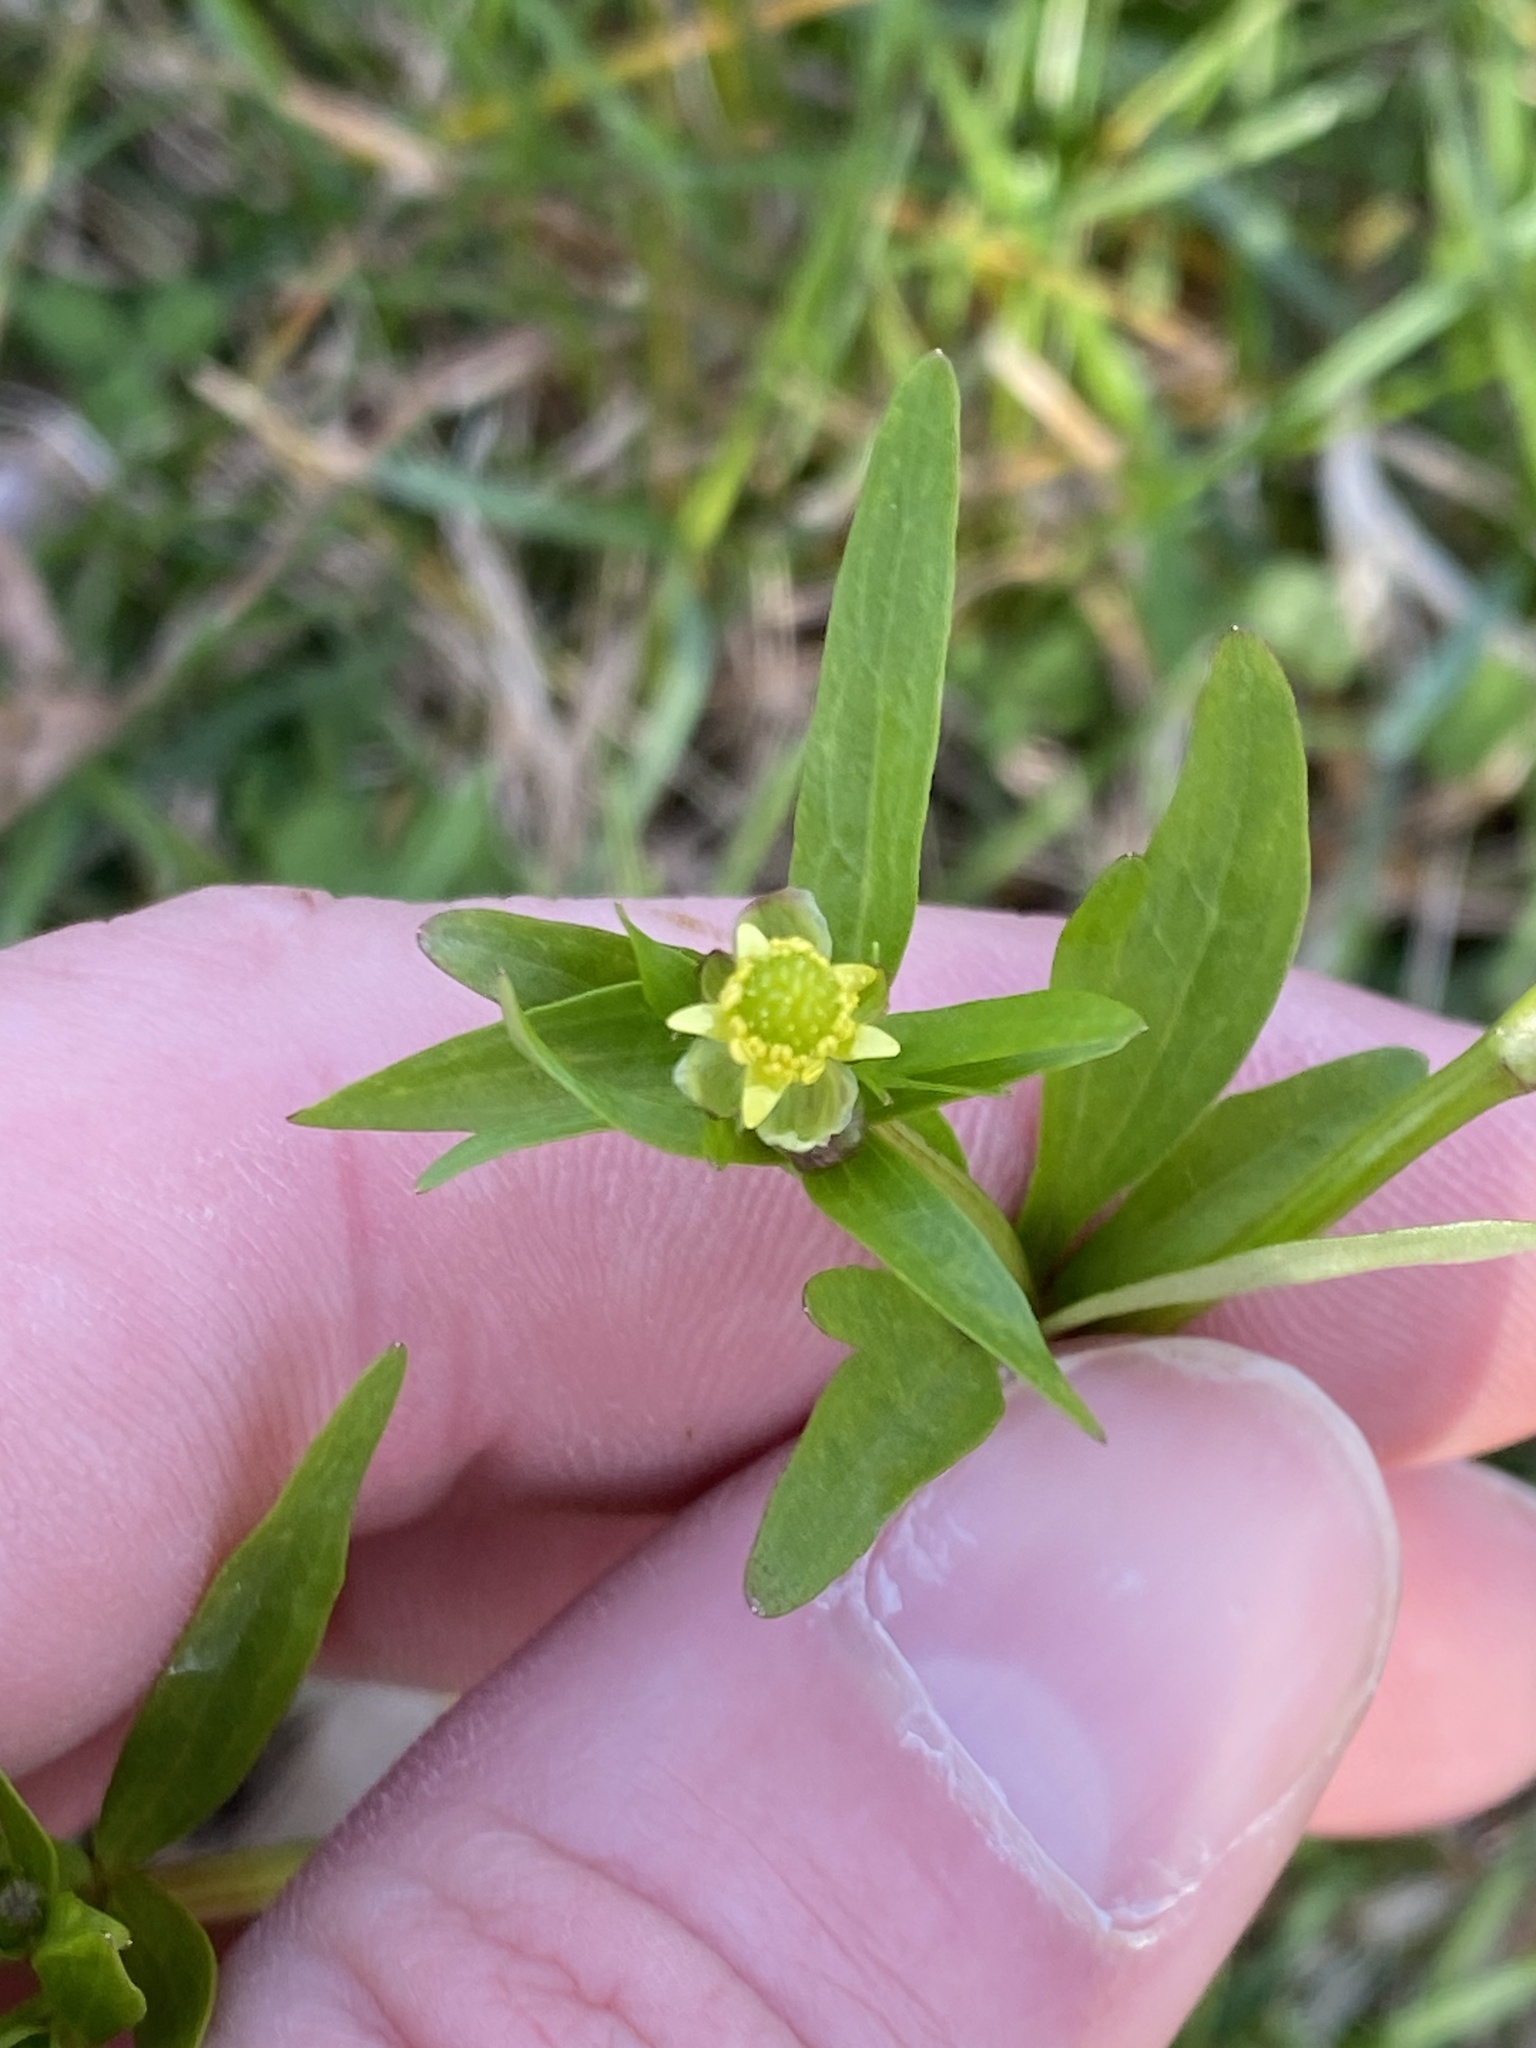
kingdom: Plantae
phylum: Tracheophyta
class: Magnoliopsida
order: Ranunculales
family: Ranunculaceae
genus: Ranunculus
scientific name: Ranunculus abortivus
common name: Early wood buttercup
